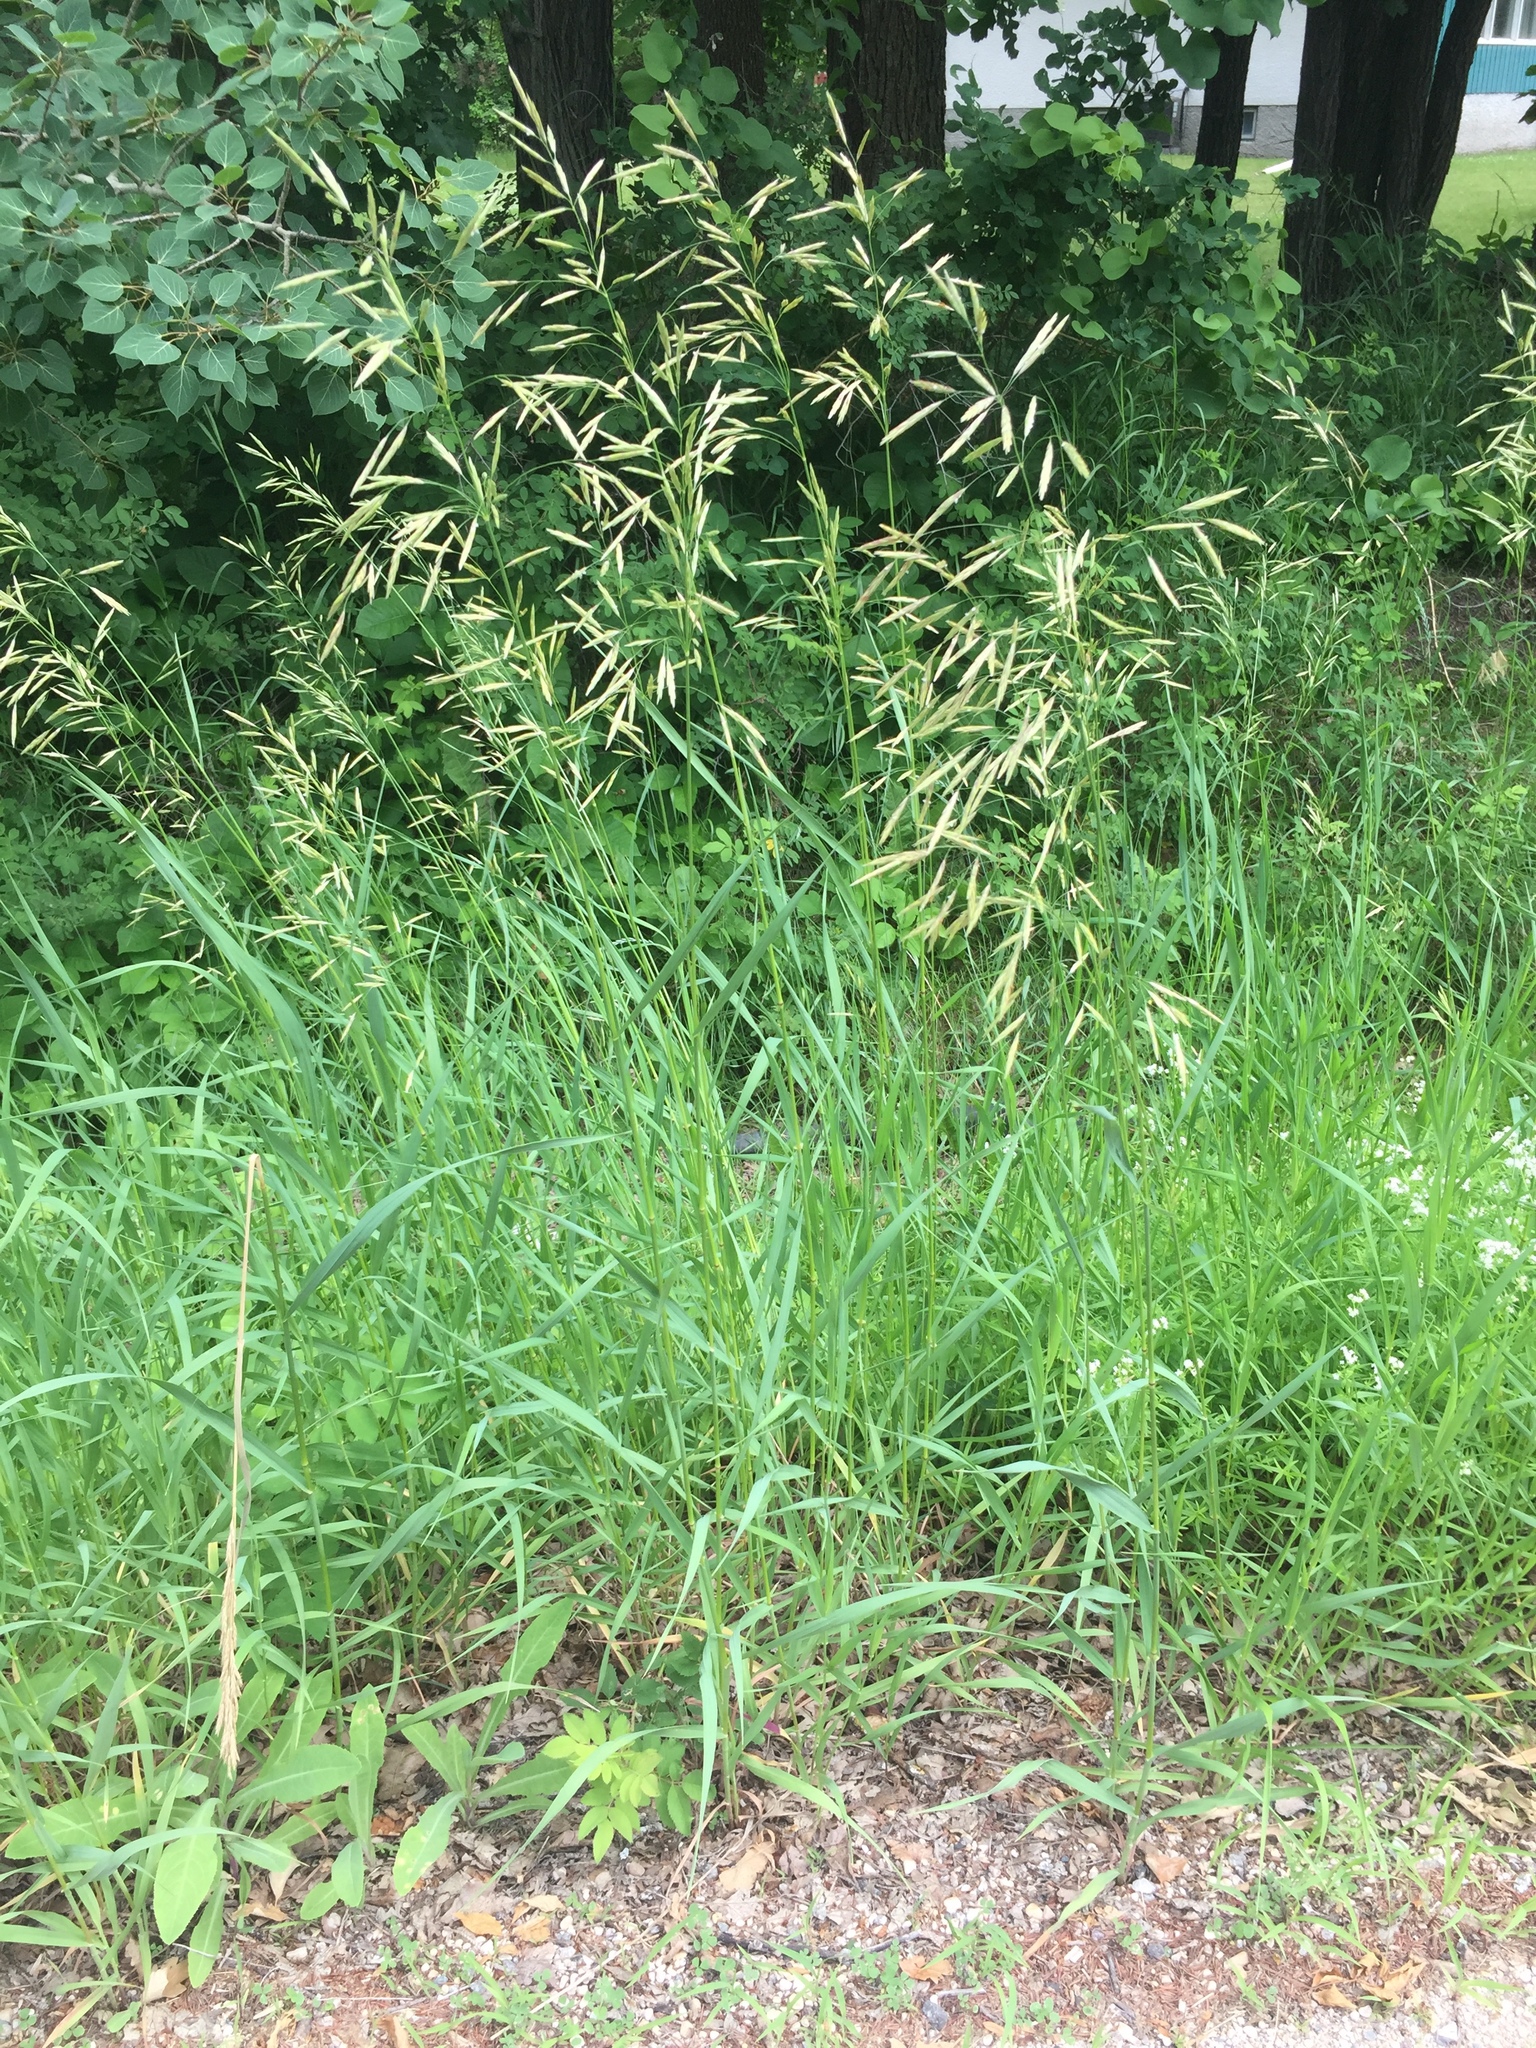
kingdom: Plantae
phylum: Tracheophyta
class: Liliopsida
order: Poales
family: Poaceae
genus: Bromus
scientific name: Bromus inermis
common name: Smooth brome
